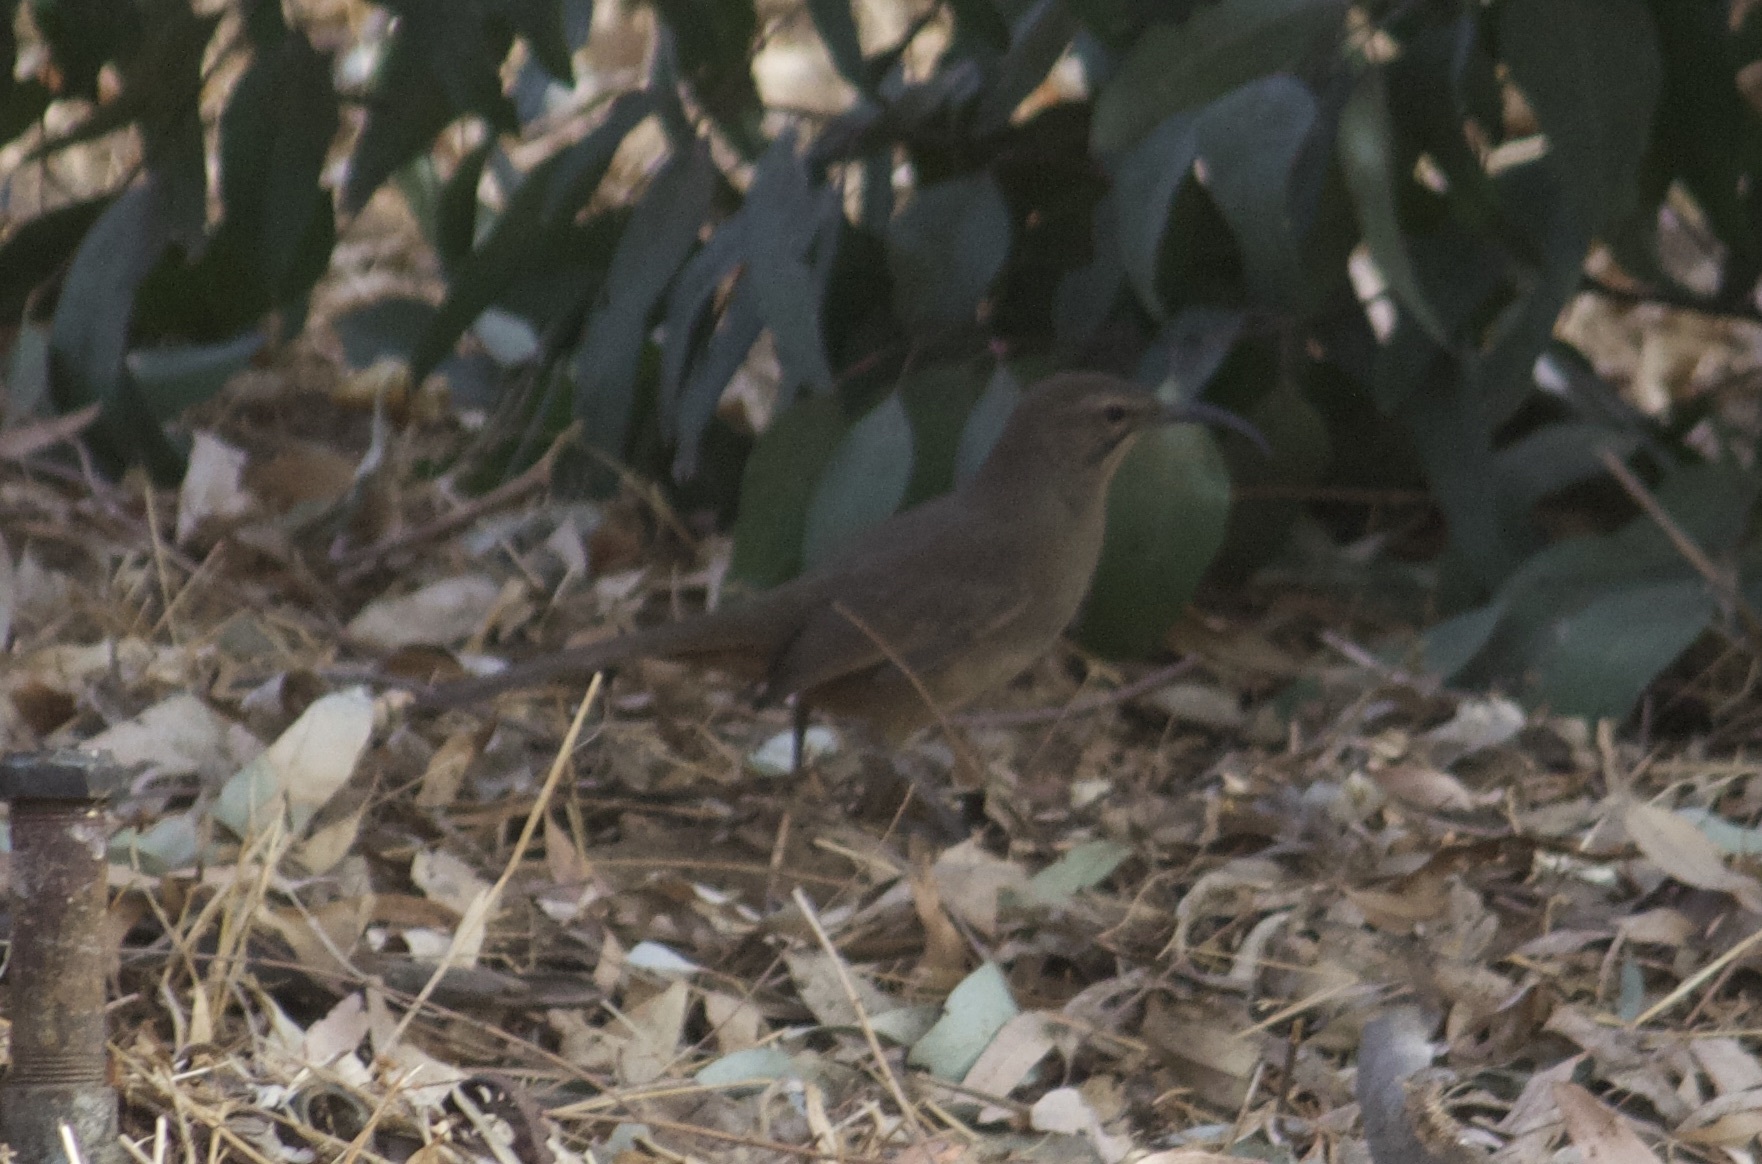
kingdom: Animalia
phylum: Chordata
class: Aves
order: Passeriformes
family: Mimidae
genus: Toxostoma
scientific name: Toxostoma redivivum
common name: California thrasher
